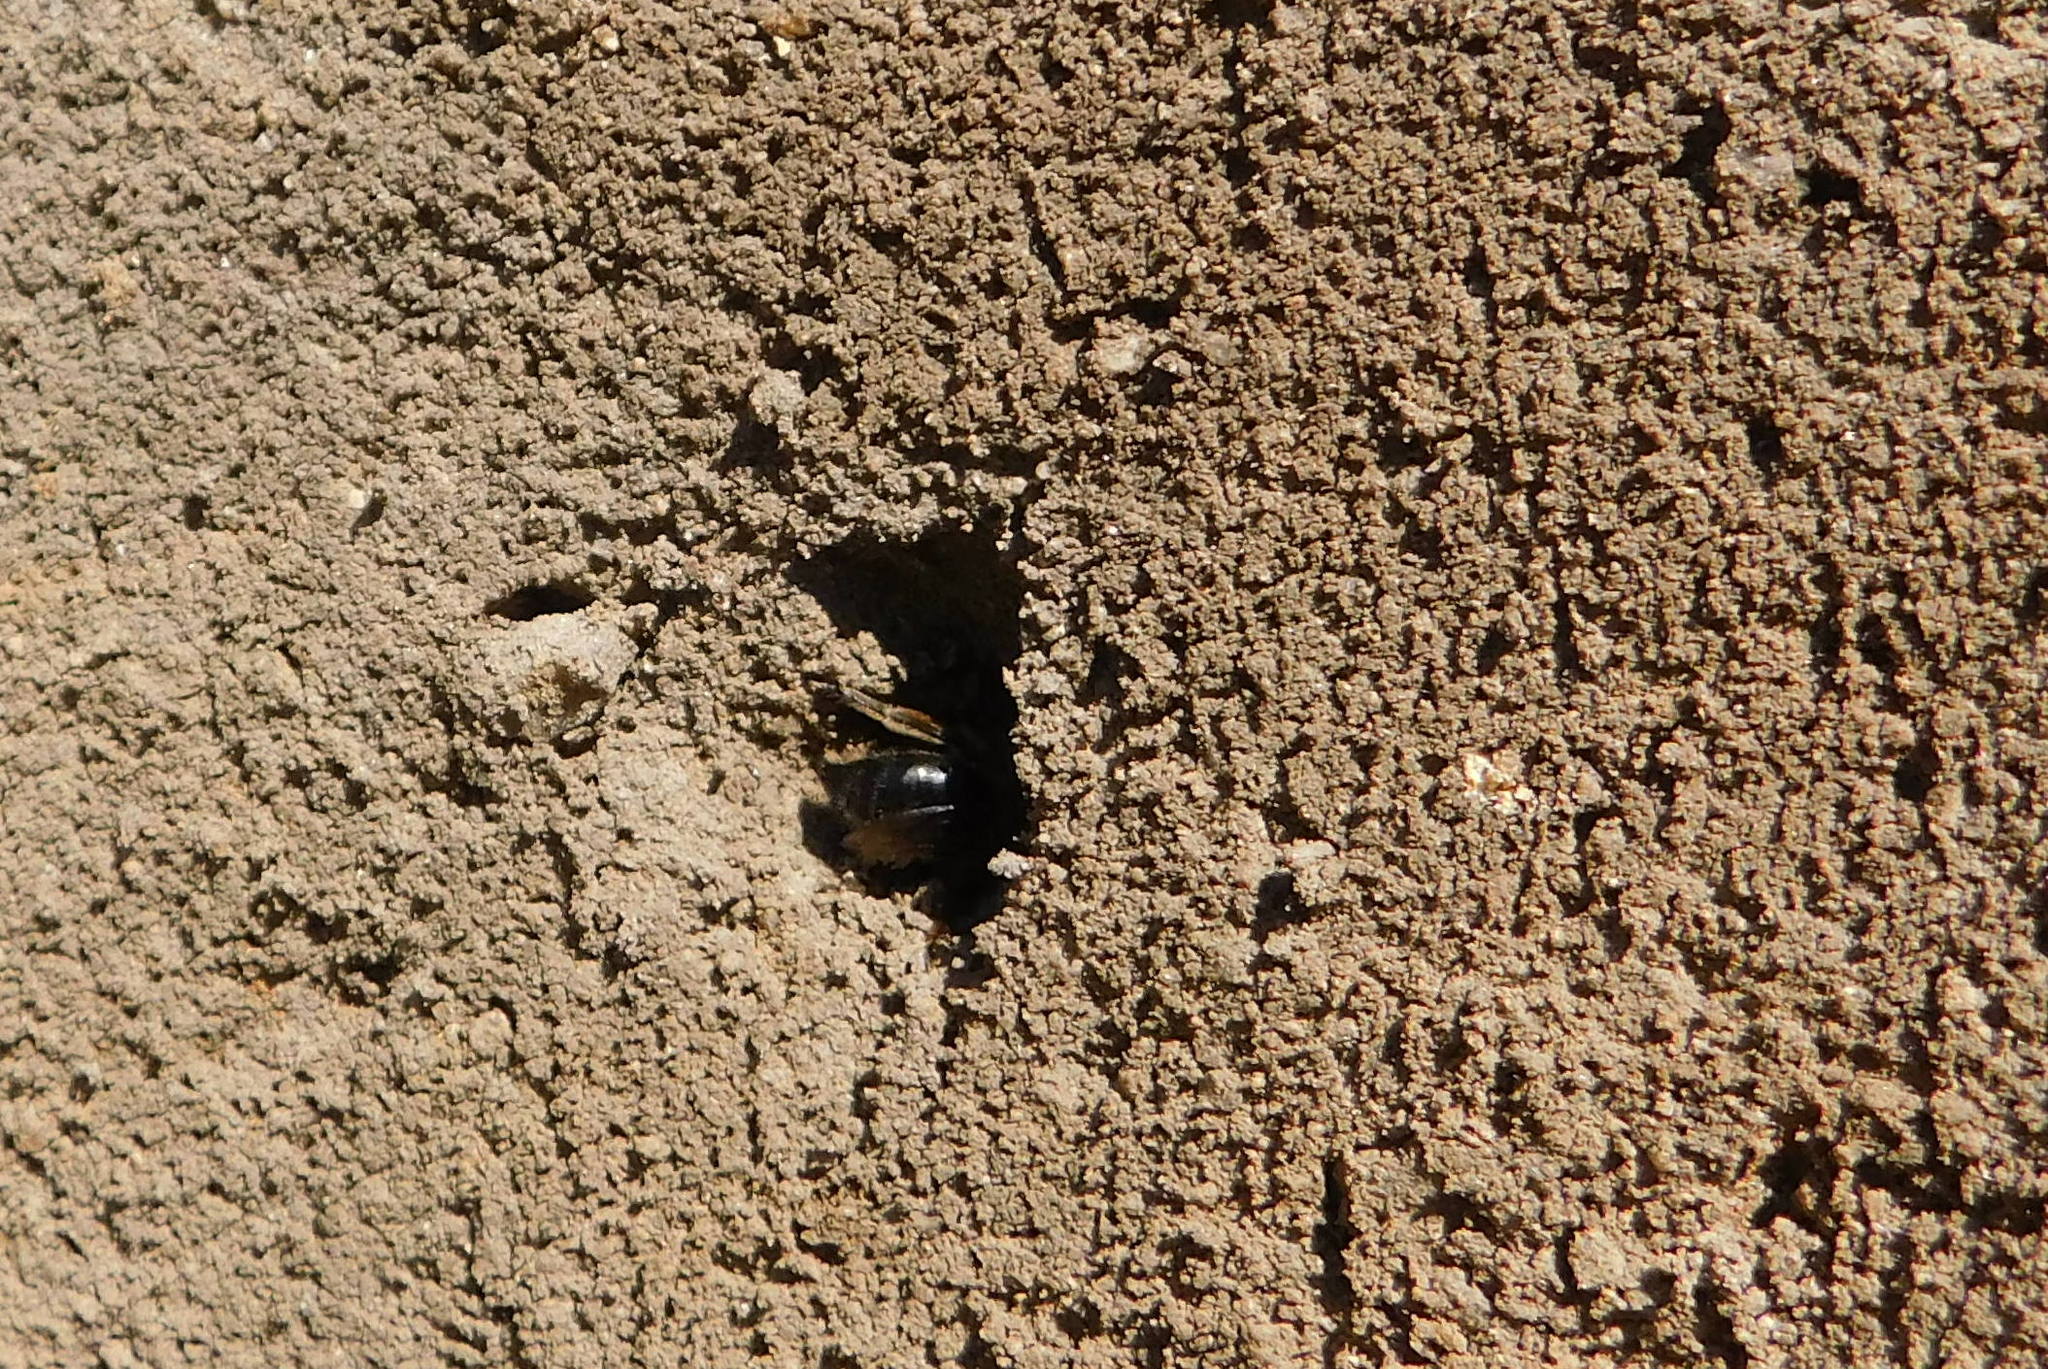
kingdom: Animalia
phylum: Arthropoda
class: Insecta
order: Hymenoptera
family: Colletidae
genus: Colletes
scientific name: Colletes cunicularius
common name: Early colletes
